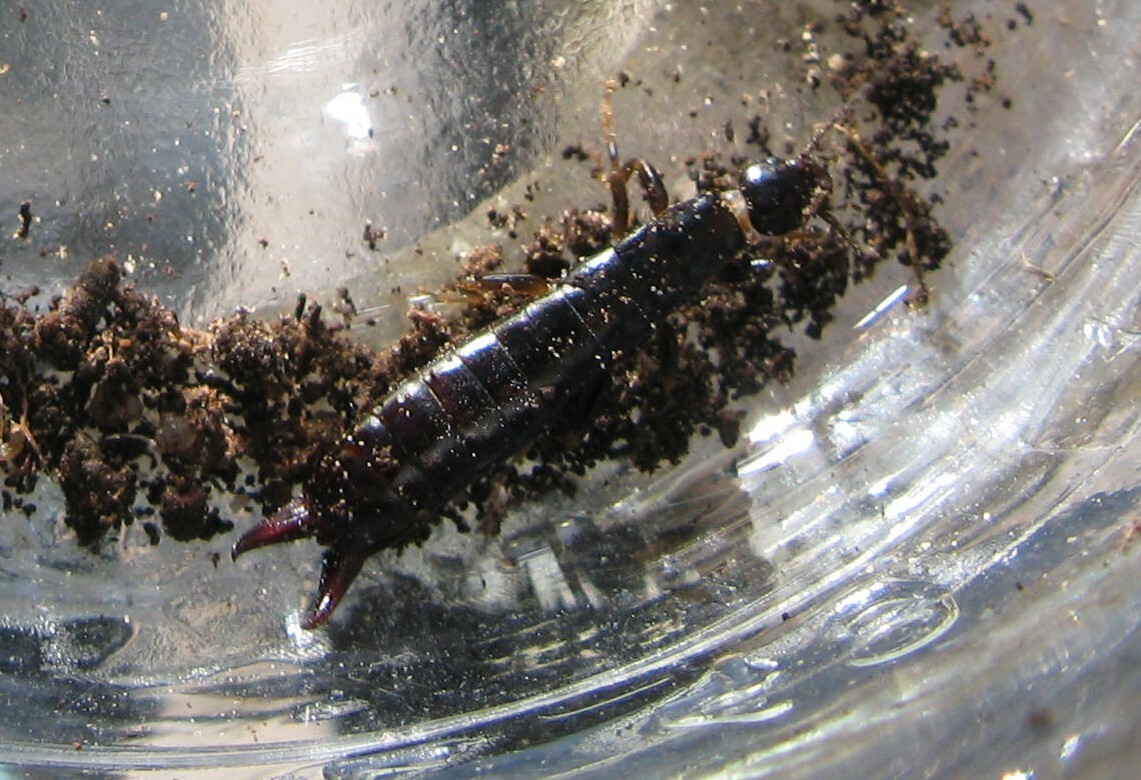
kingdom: Animalia
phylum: Arthropoda
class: Insecta
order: Dermaptera
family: Anisolabididae
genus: Euborellia
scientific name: Euborellia moesta
